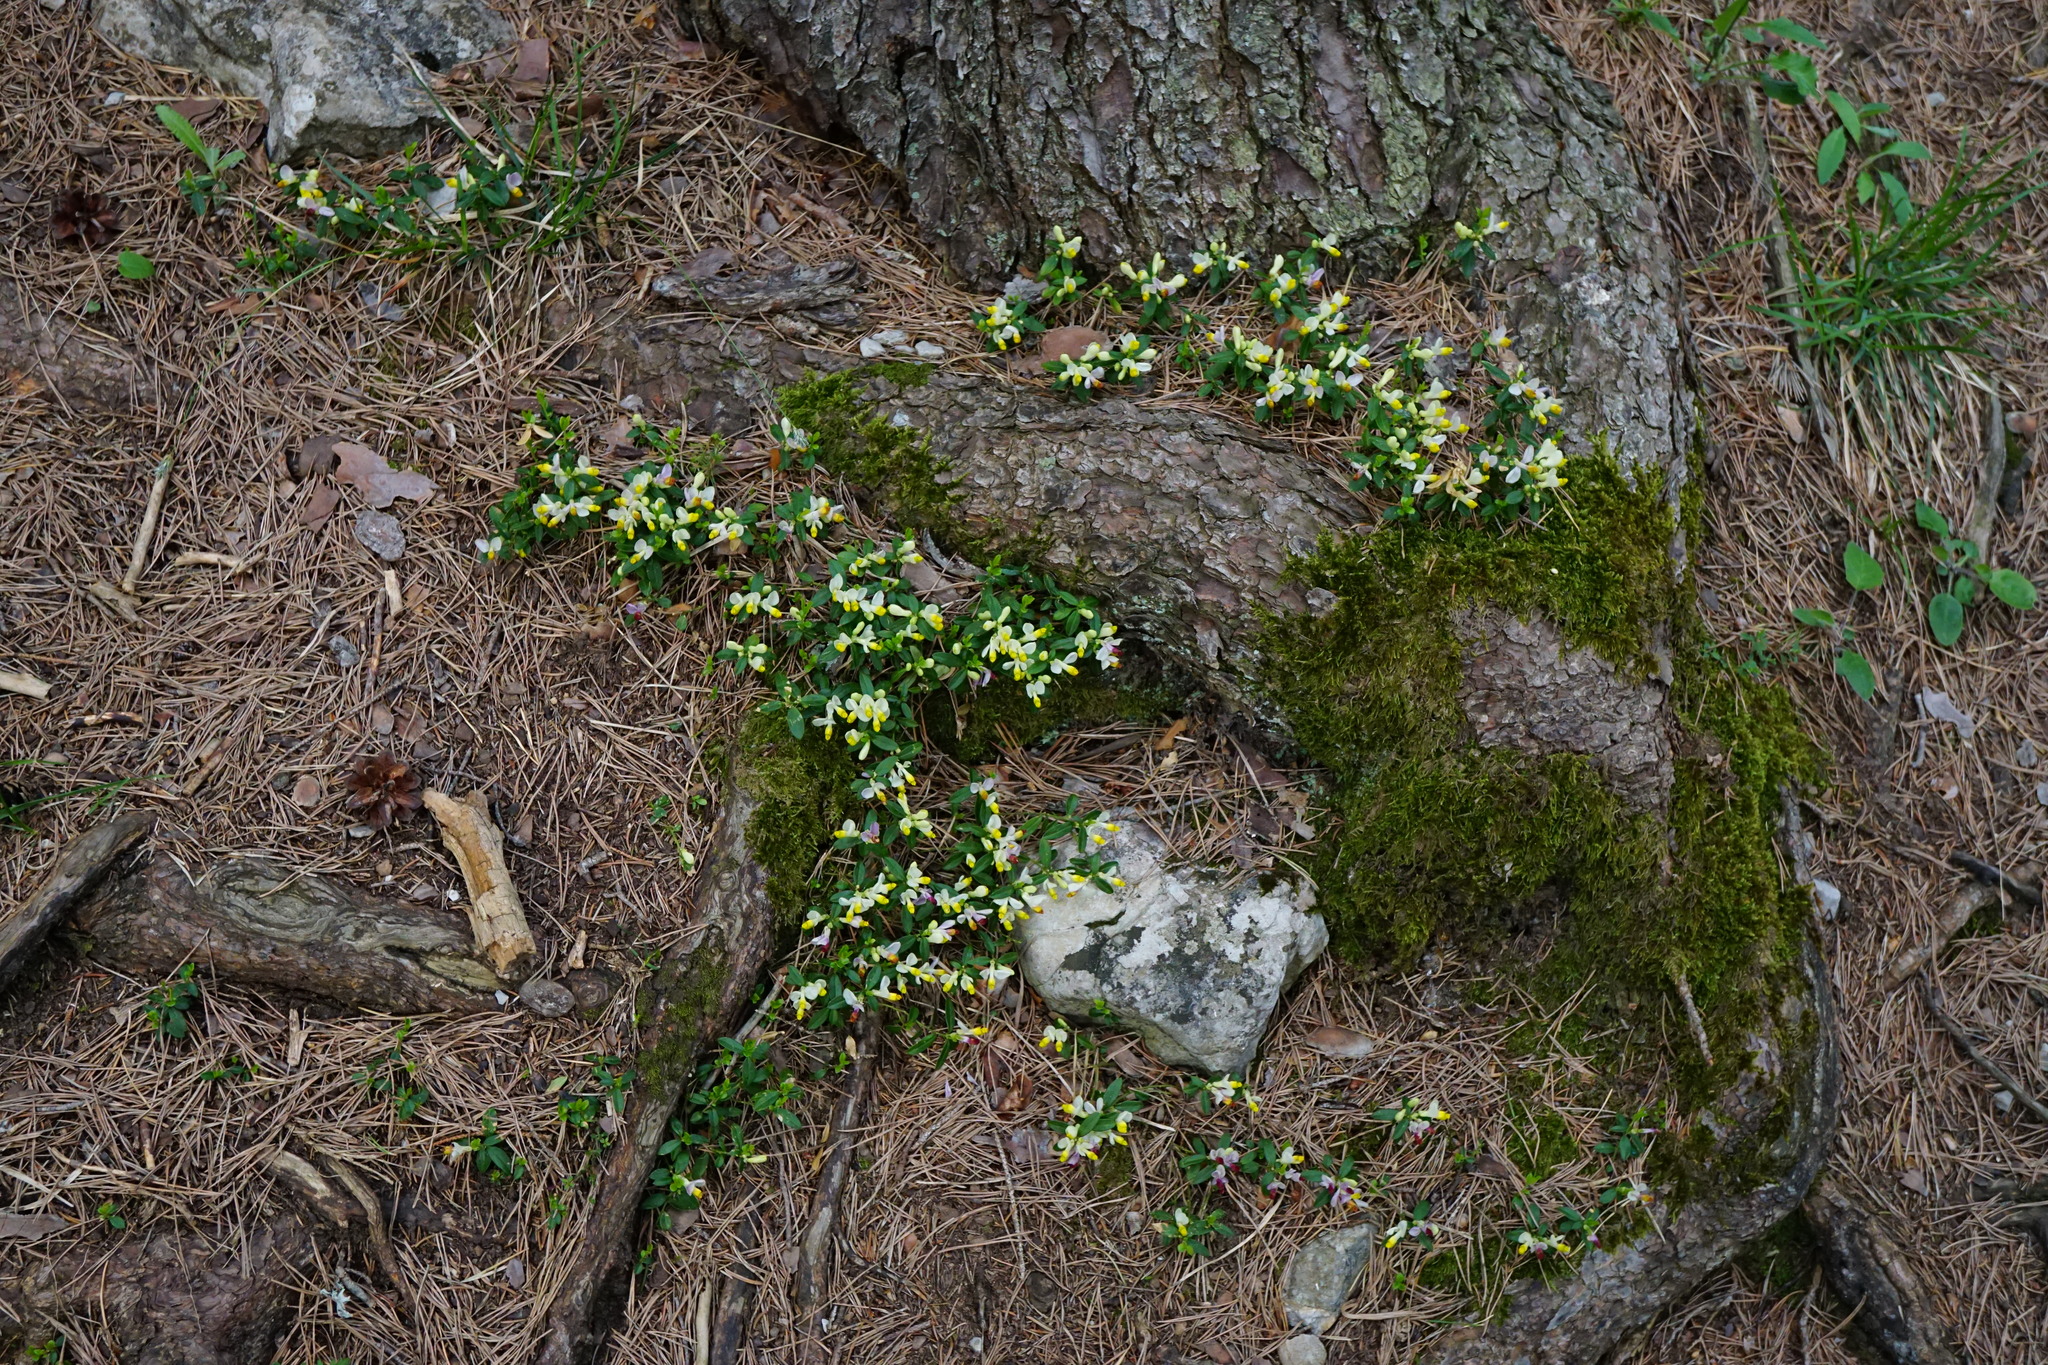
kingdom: Plantae
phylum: Tracheophyta
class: Magnoliopsida
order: Fabales
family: Polygalaceae
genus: Polygaloides
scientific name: Polygaloides chamaebuxus
